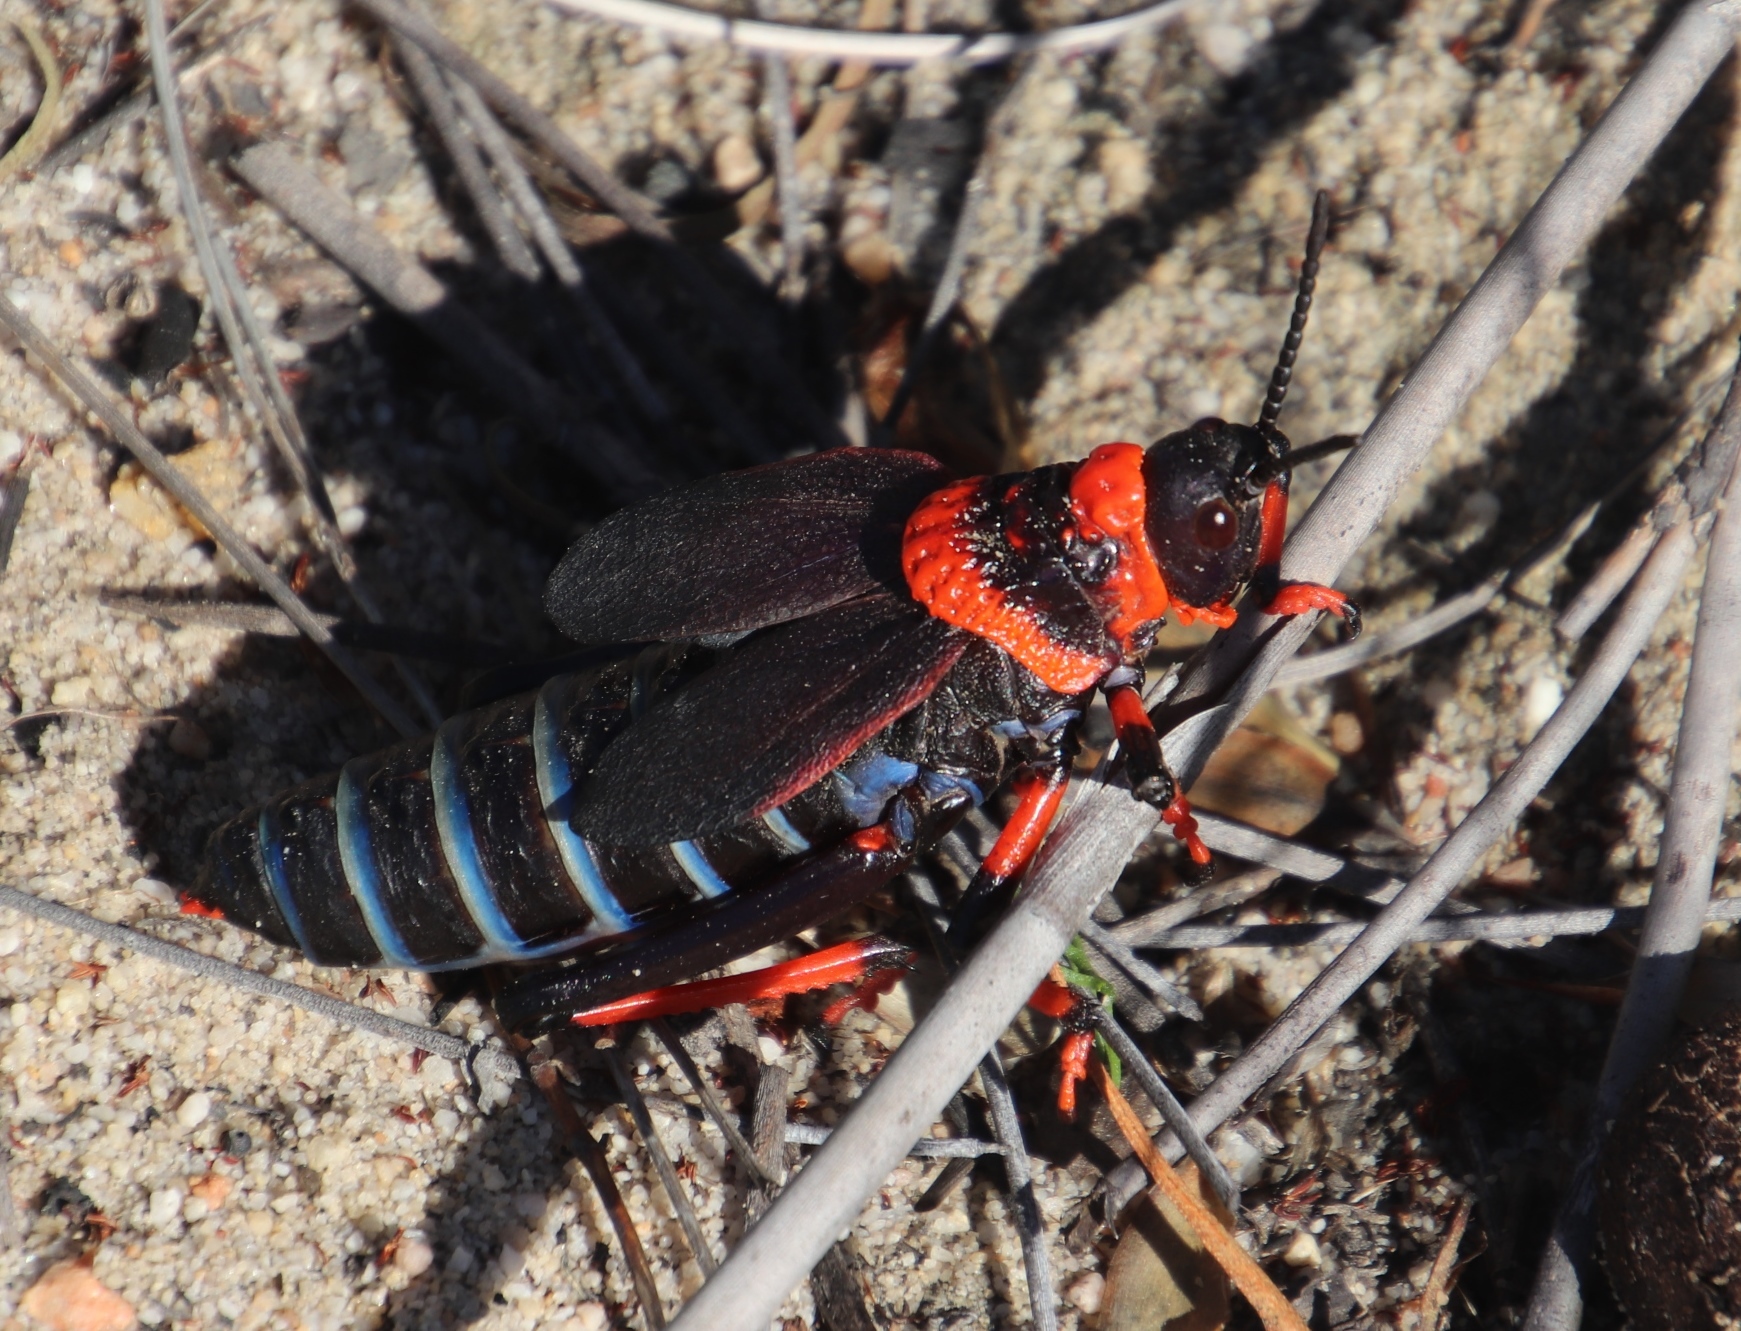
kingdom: Animalia
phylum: Arthropoda
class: Insecta
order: Orthoptera
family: Pyrgomorphidae
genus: Dictyophorus
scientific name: Dictyophorus spumans
